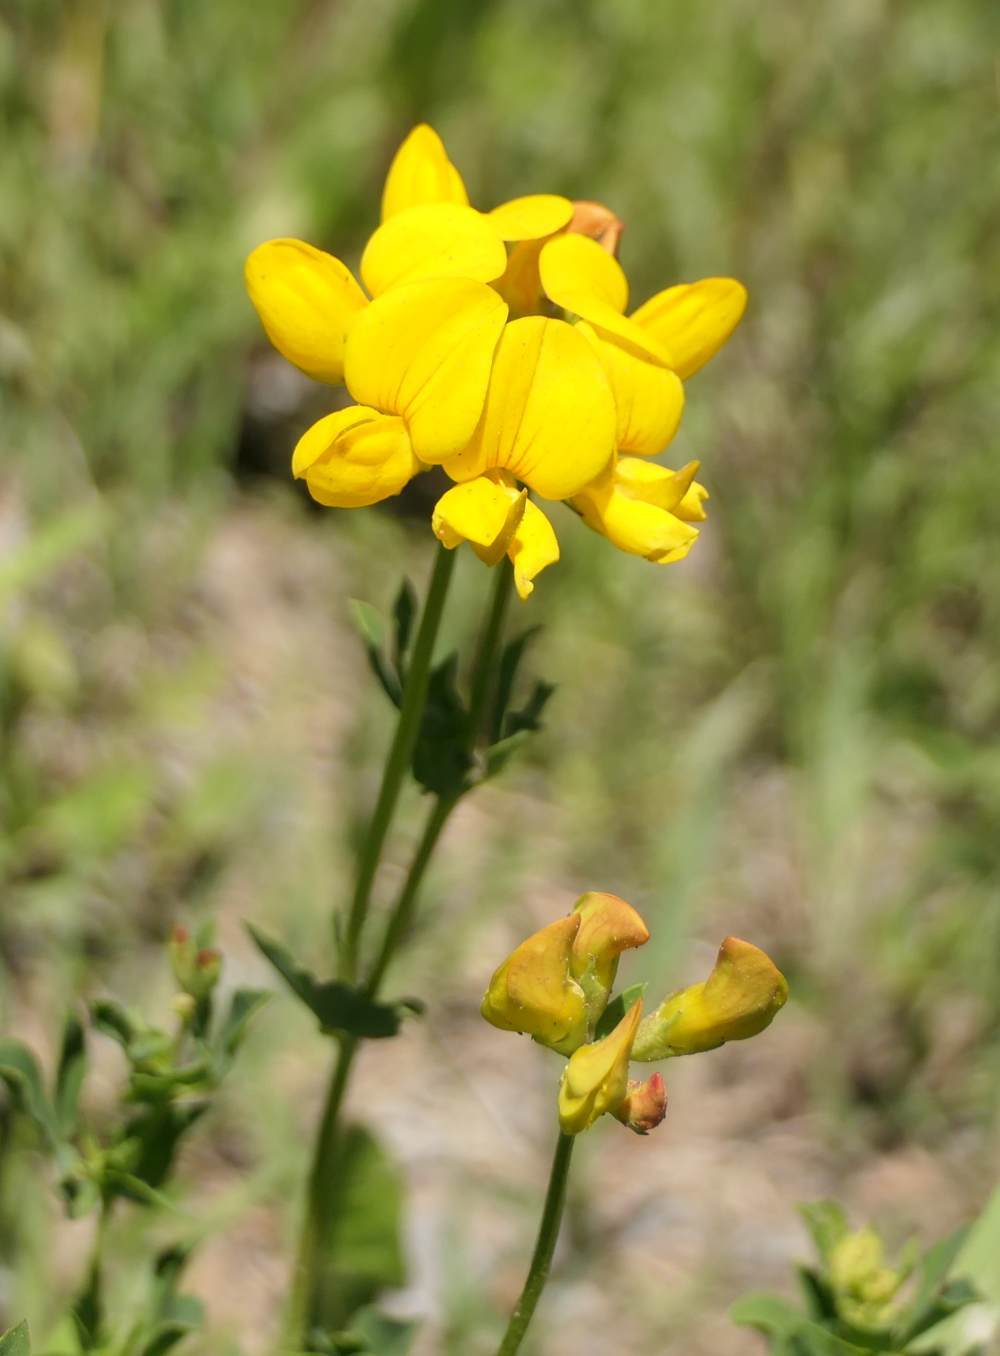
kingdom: Plantae
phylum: Tracheophyta
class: Magnoliopsida
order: Fabales
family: Fabaceae
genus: Lotus
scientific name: Lotus corniculatus
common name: Common bird's-foot-trefoil
